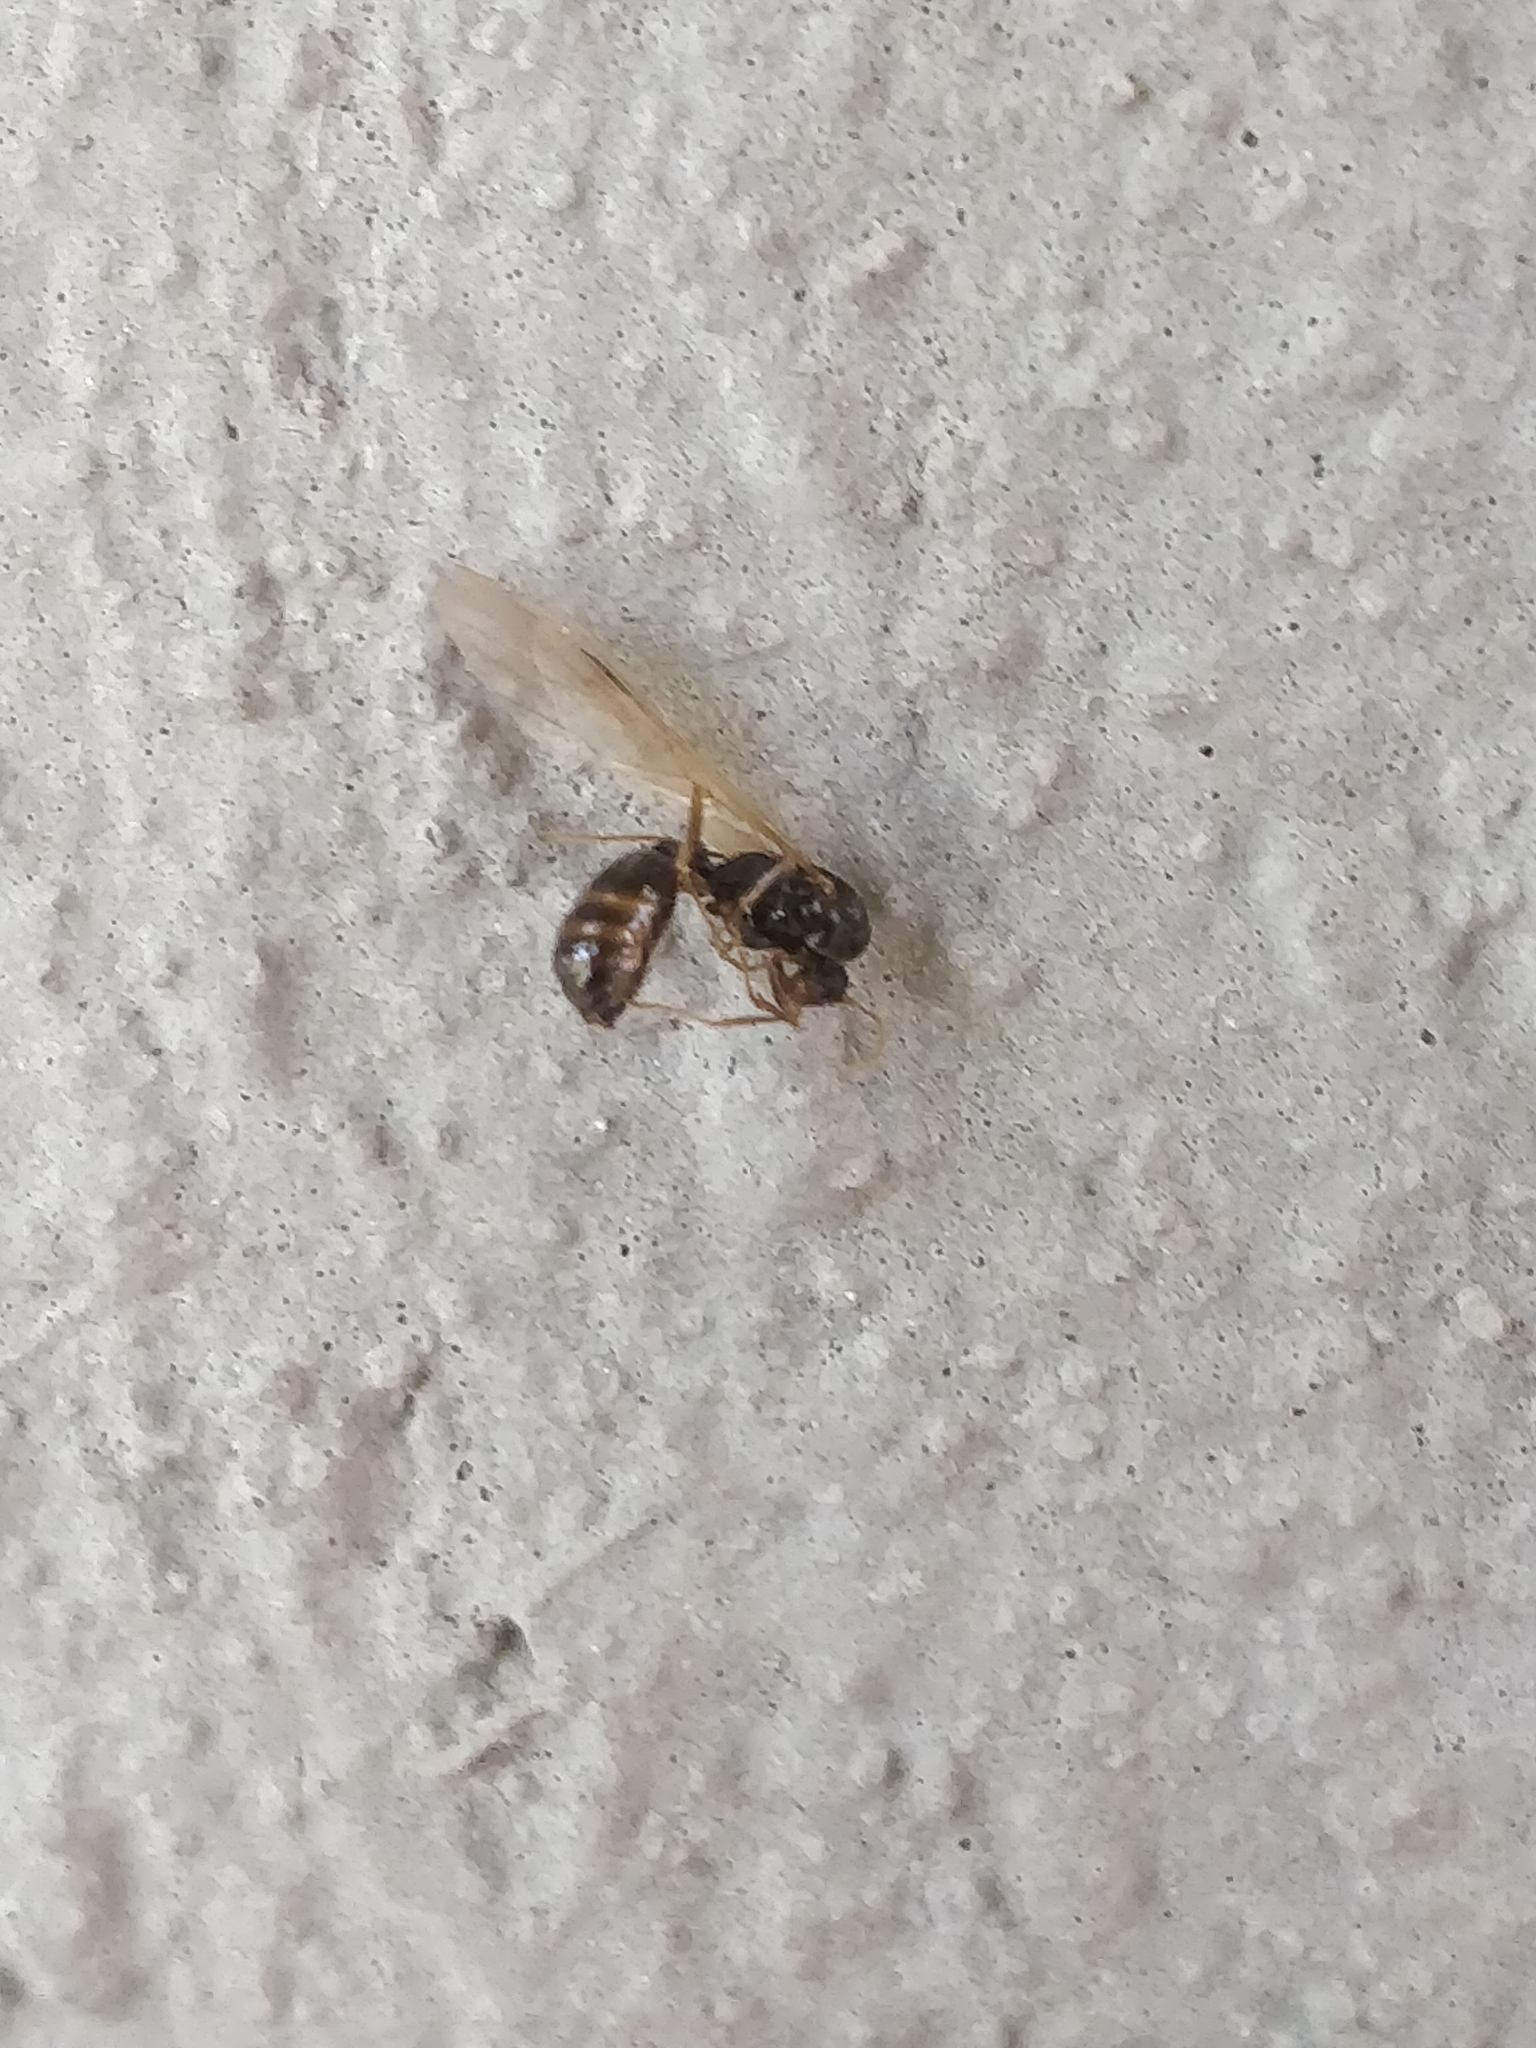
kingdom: Animalia
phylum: Arthropoda
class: Insecta
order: Hymenoptera
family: Formicidae
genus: Tetramorium
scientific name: Tetramorium immigrans
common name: Pavement ant
